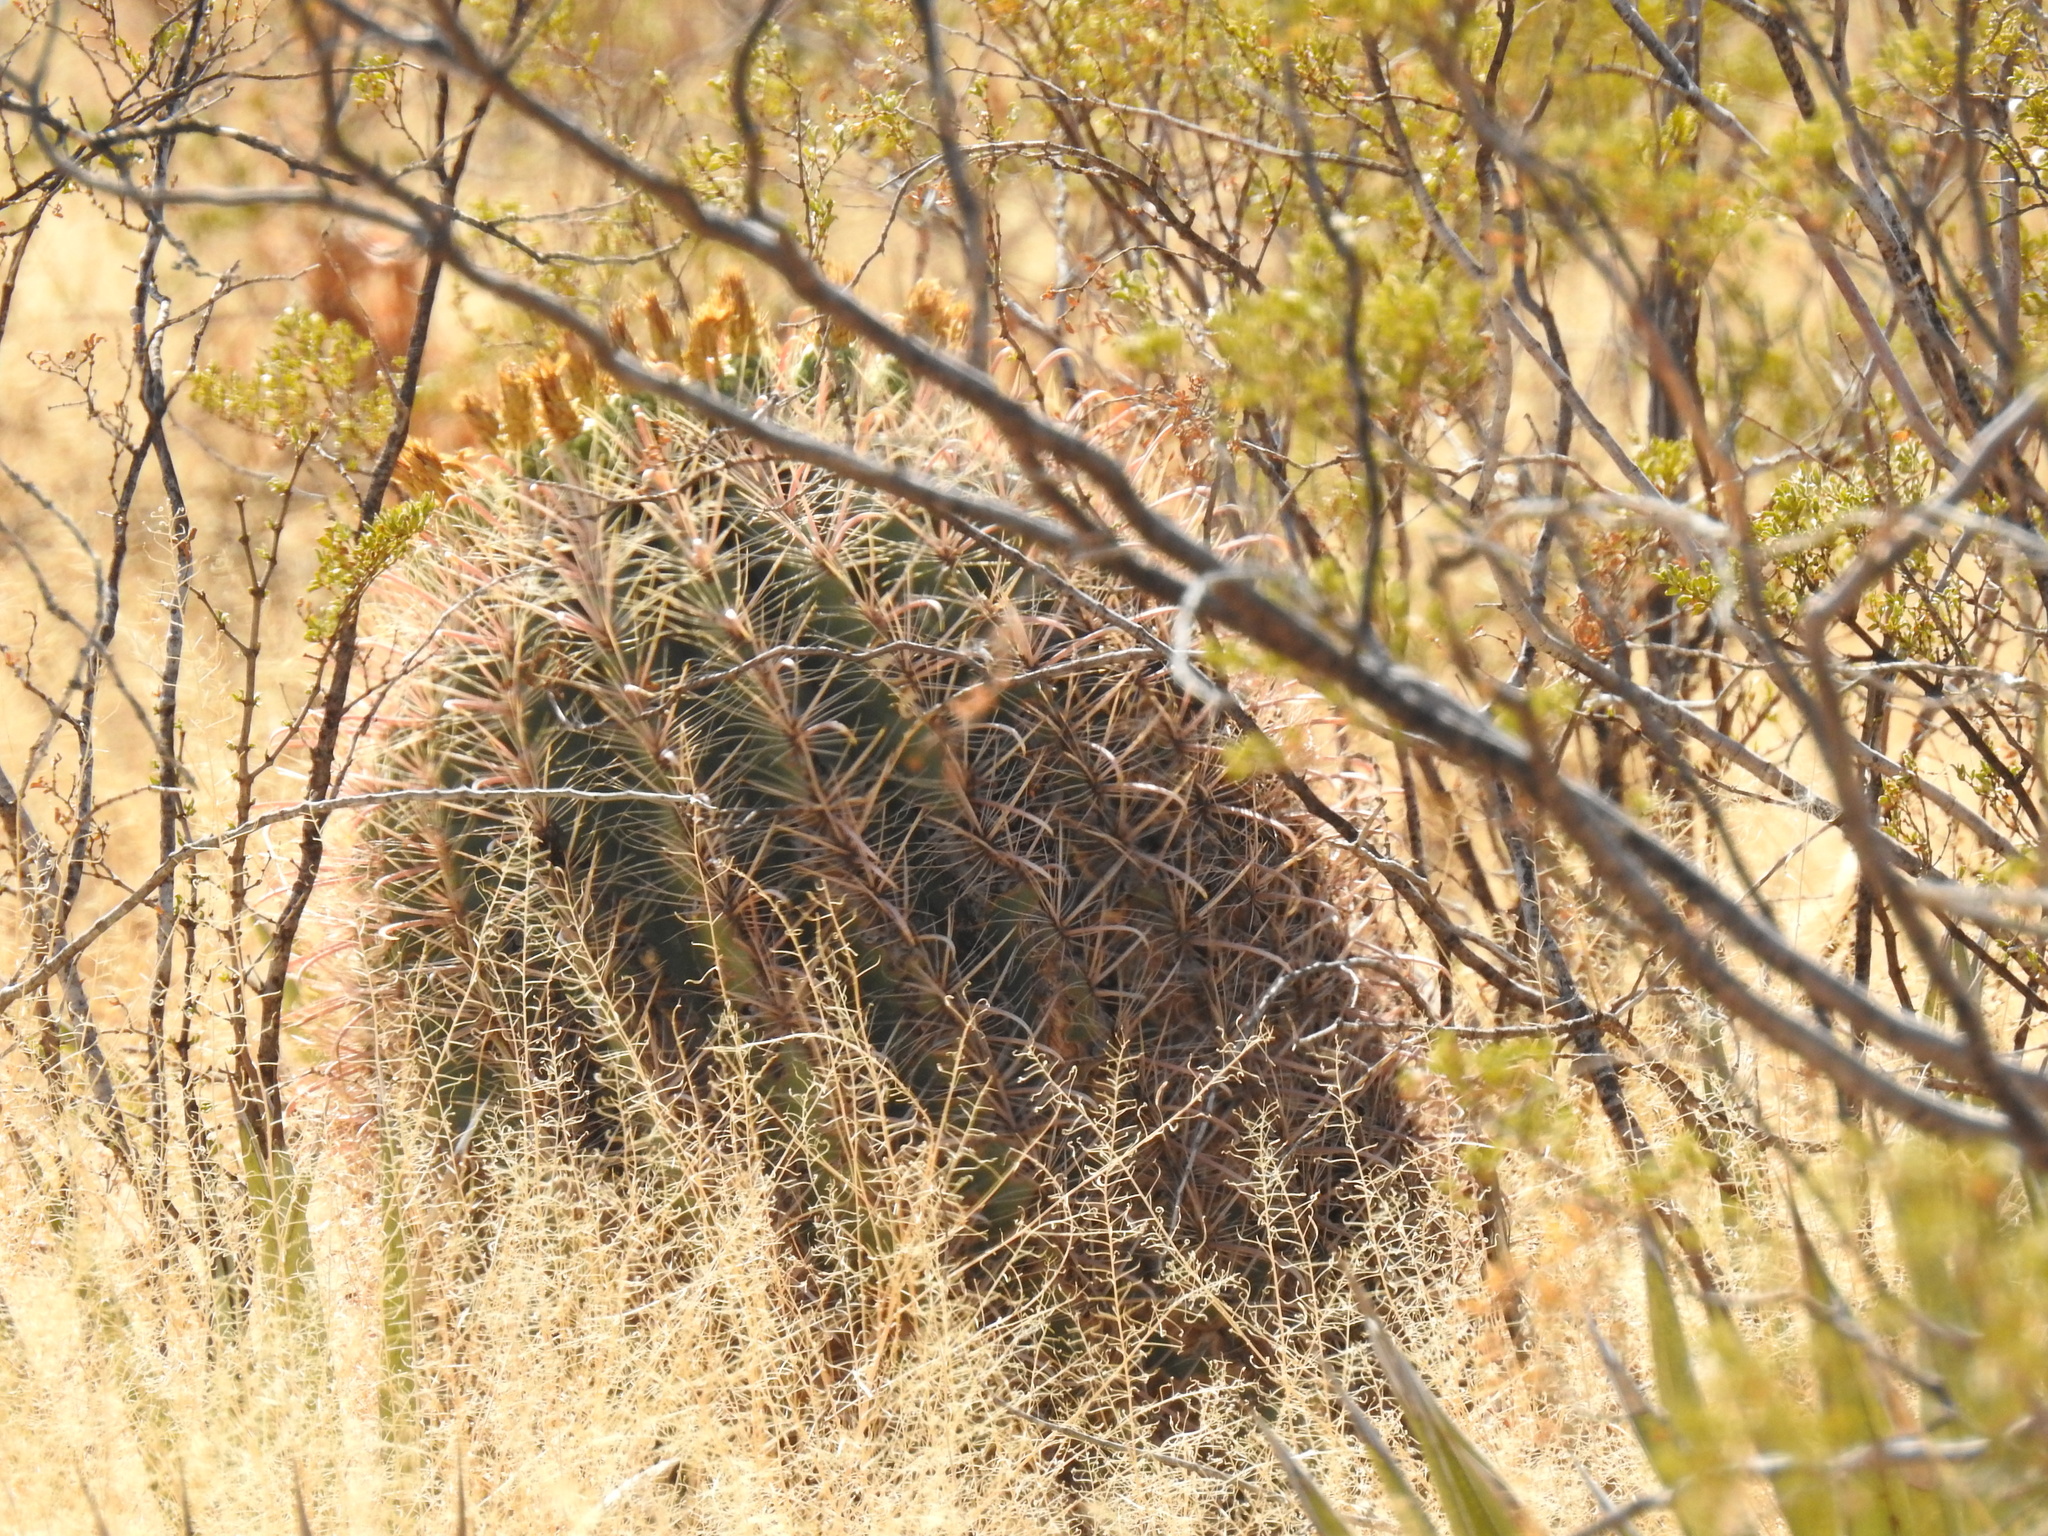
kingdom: Plantae
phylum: Tracheophyta
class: Magnoliopsida
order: Caryophyllales
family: Cactaceae
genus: Ferocactus
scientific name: Ferocactus wislizeni
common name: Candy barrel cactus
